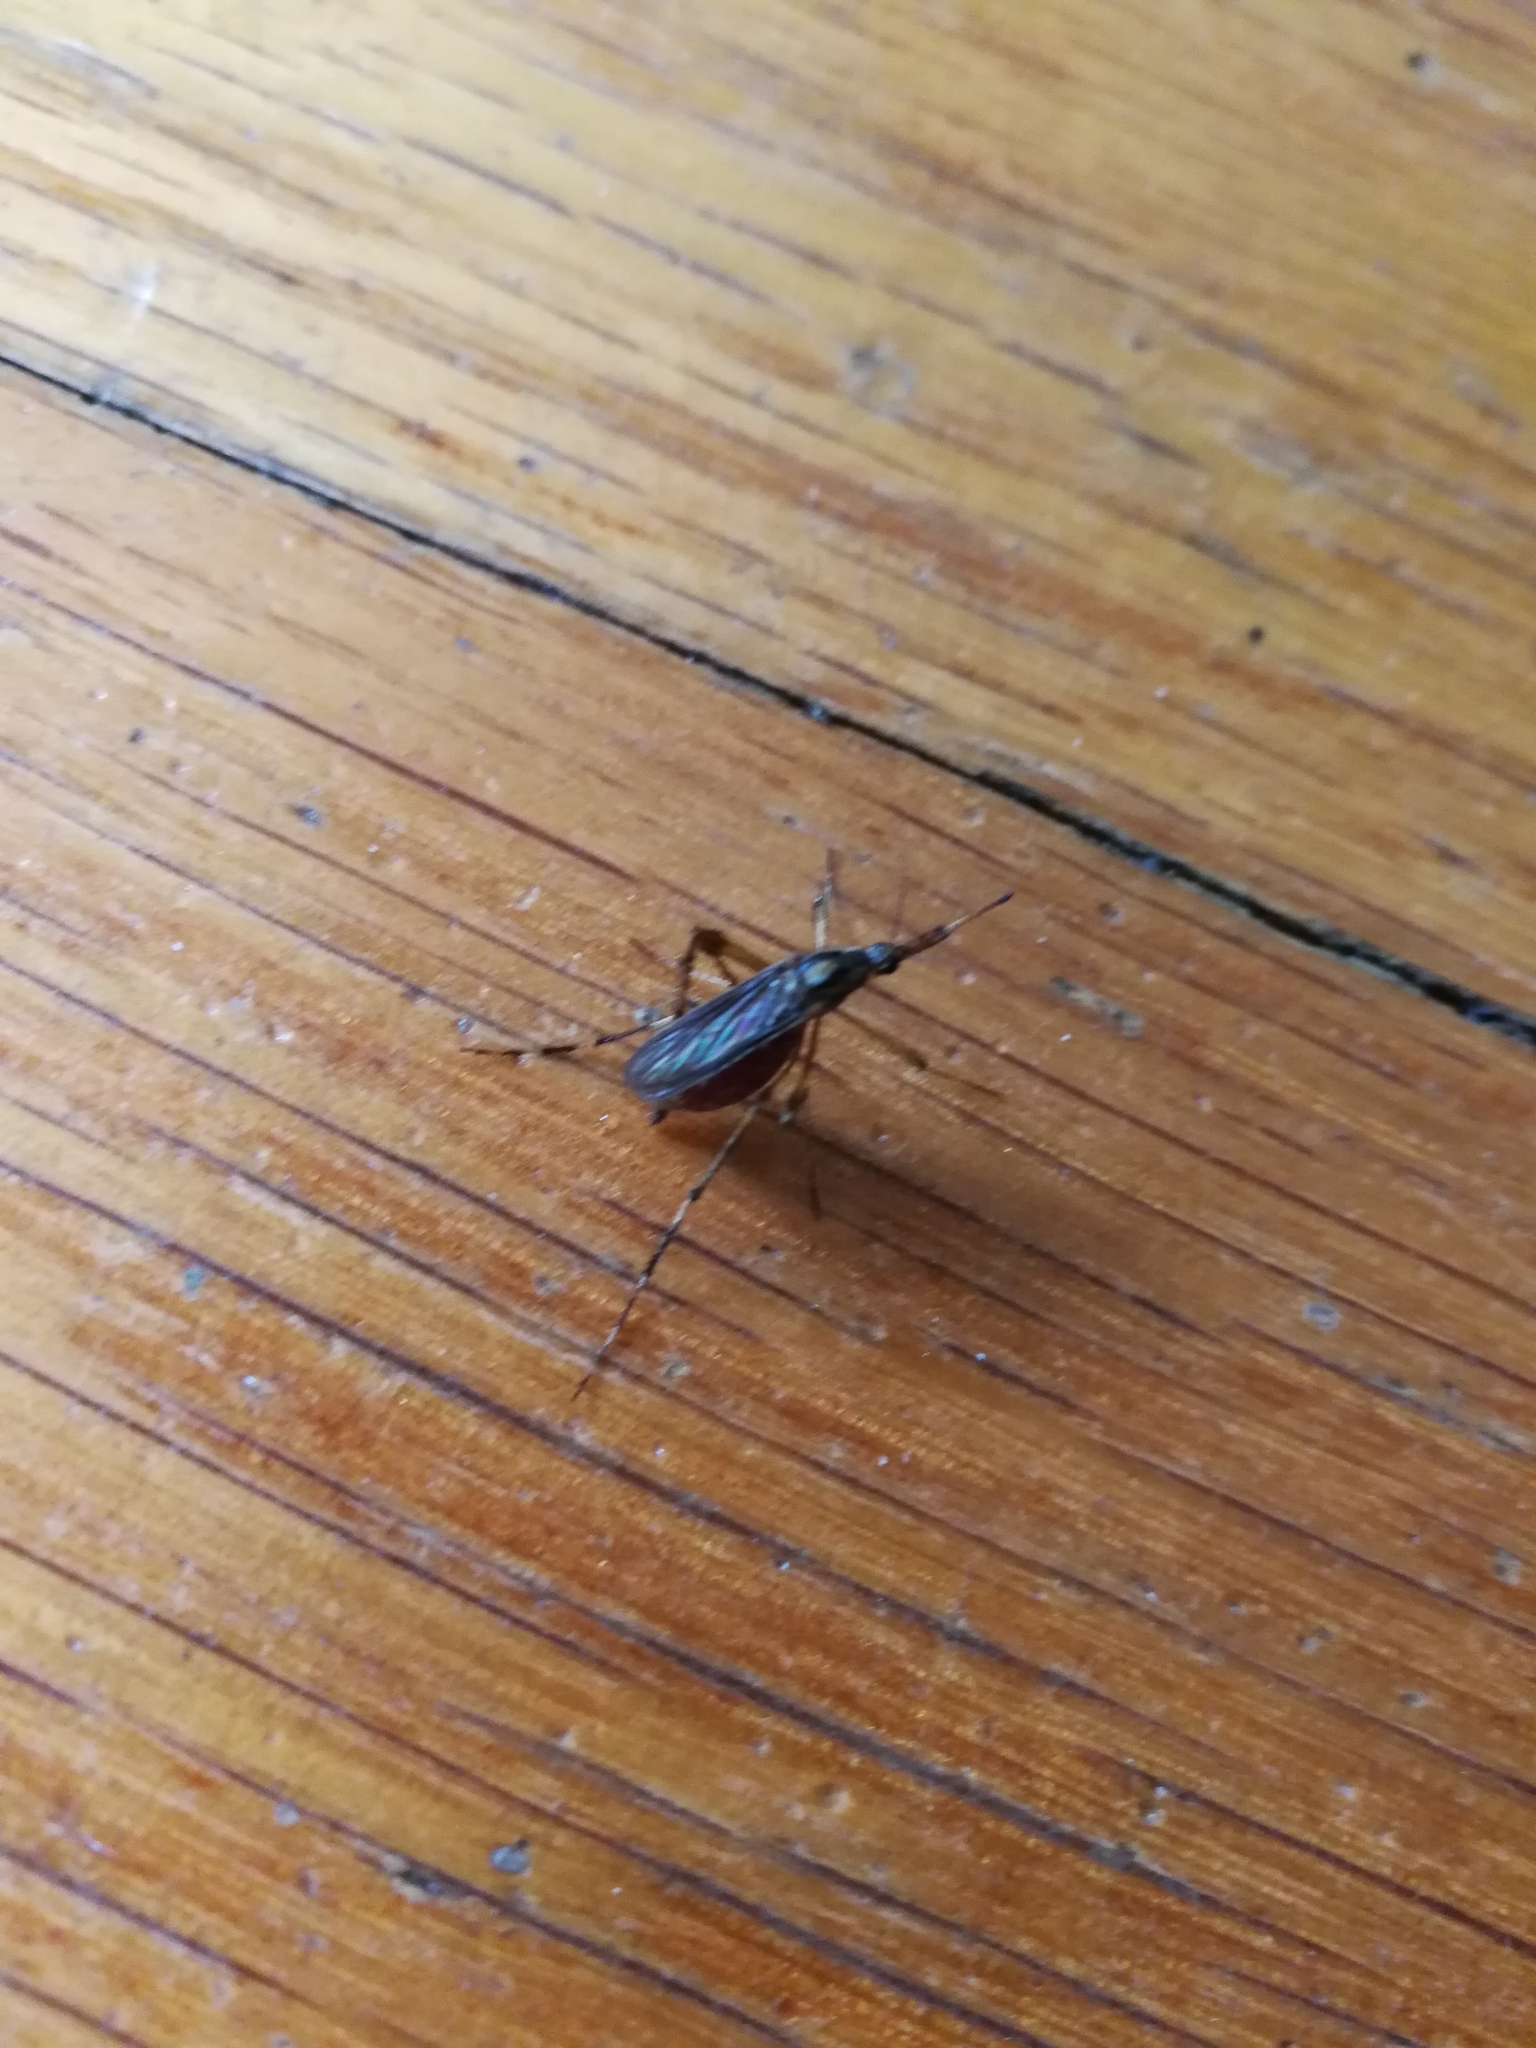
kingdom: Animalia
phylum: Arthropoda
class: Insecta
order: Diptera
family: Culicidae
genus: Psorophora
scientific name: Psorophora ciliata
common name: Gallinipper
